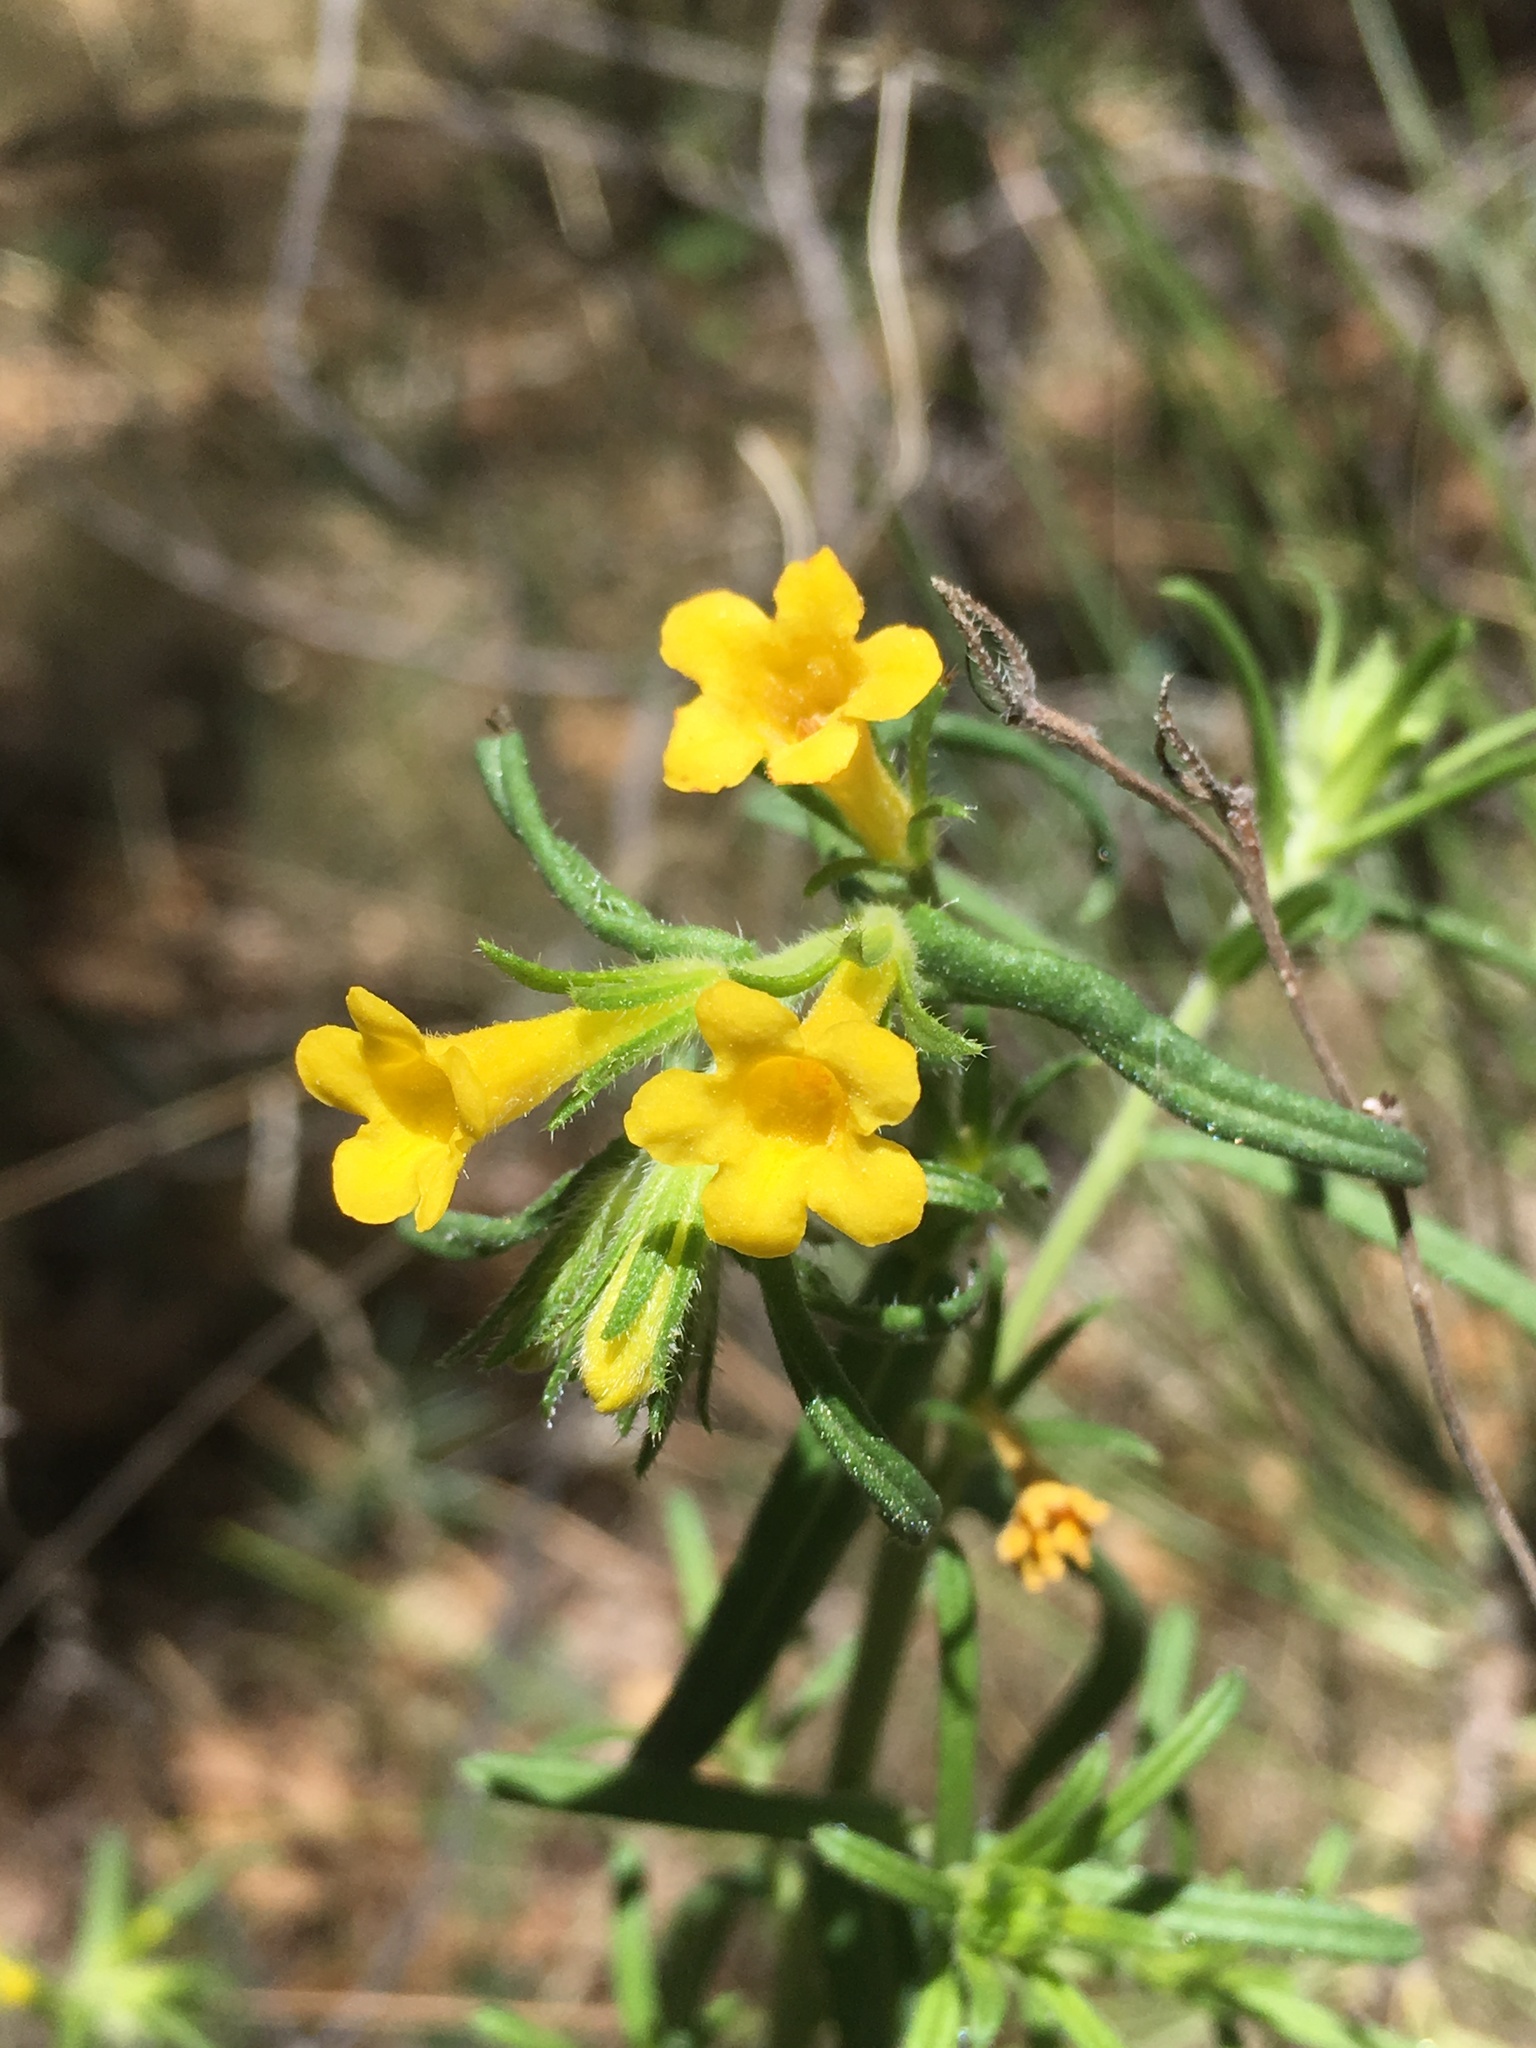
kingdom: Plantae
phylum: Tracheophyta
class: Magnoliopsida
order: Boraginales
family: Boraginaceae
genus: Lithospermum
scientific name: Lithospermum multiflorum
